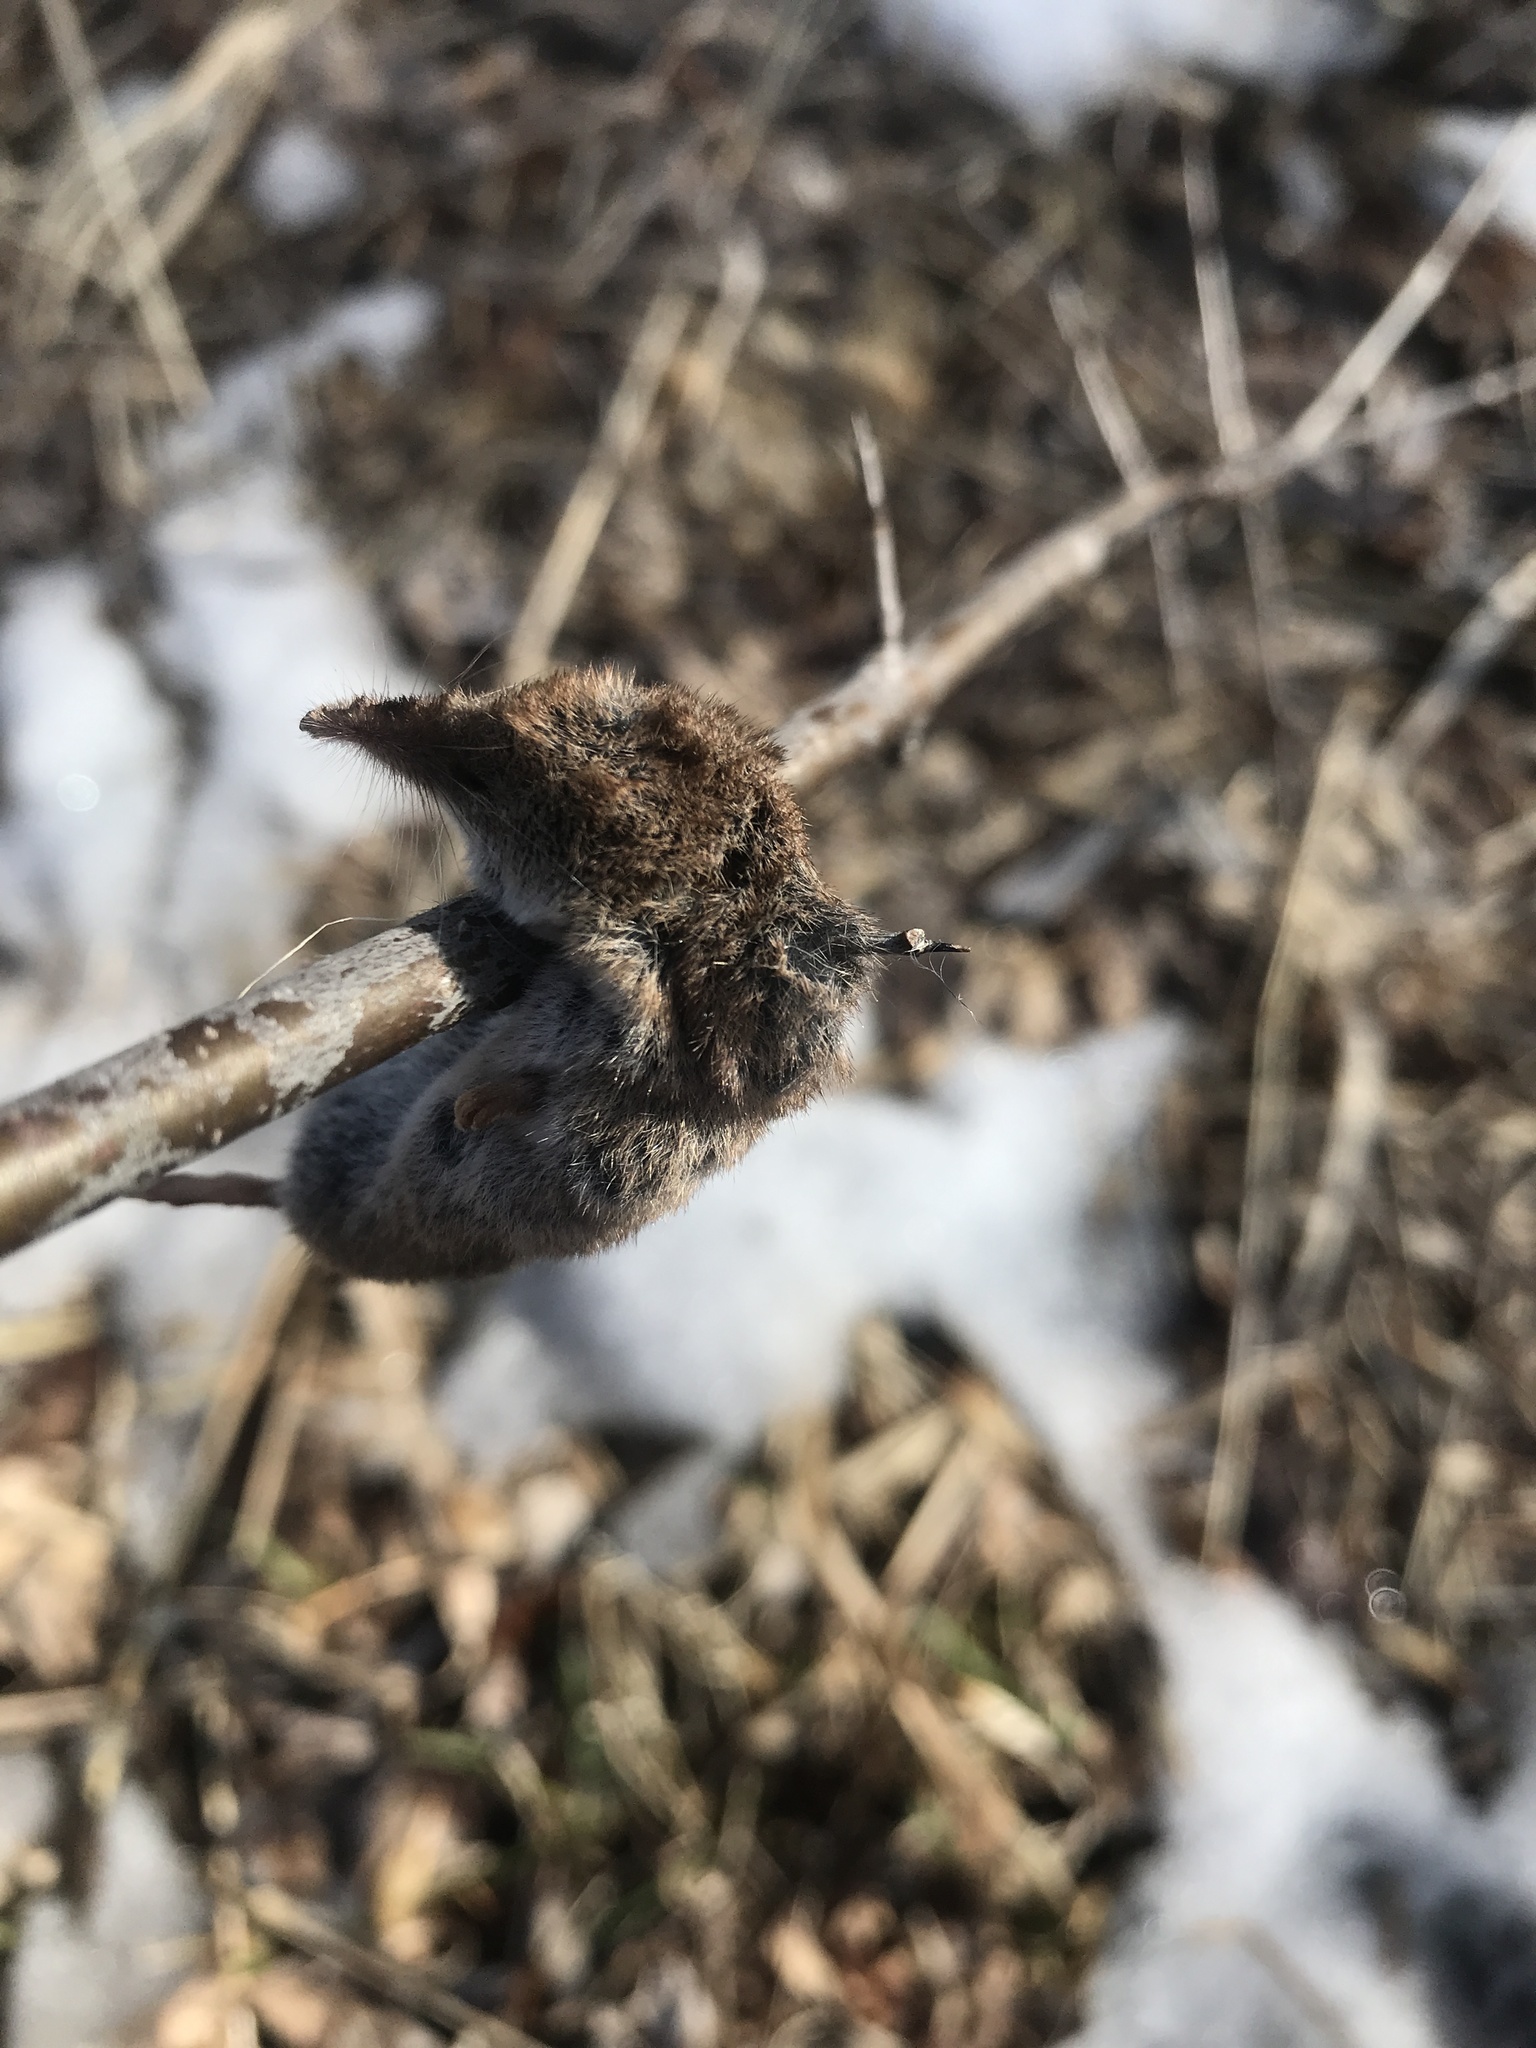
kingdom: Animalia
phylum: Chordata
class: Aves
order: Passeriformes
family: Laniidae
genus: Lanius
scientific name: Lanius borealis
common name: Northern shrike
